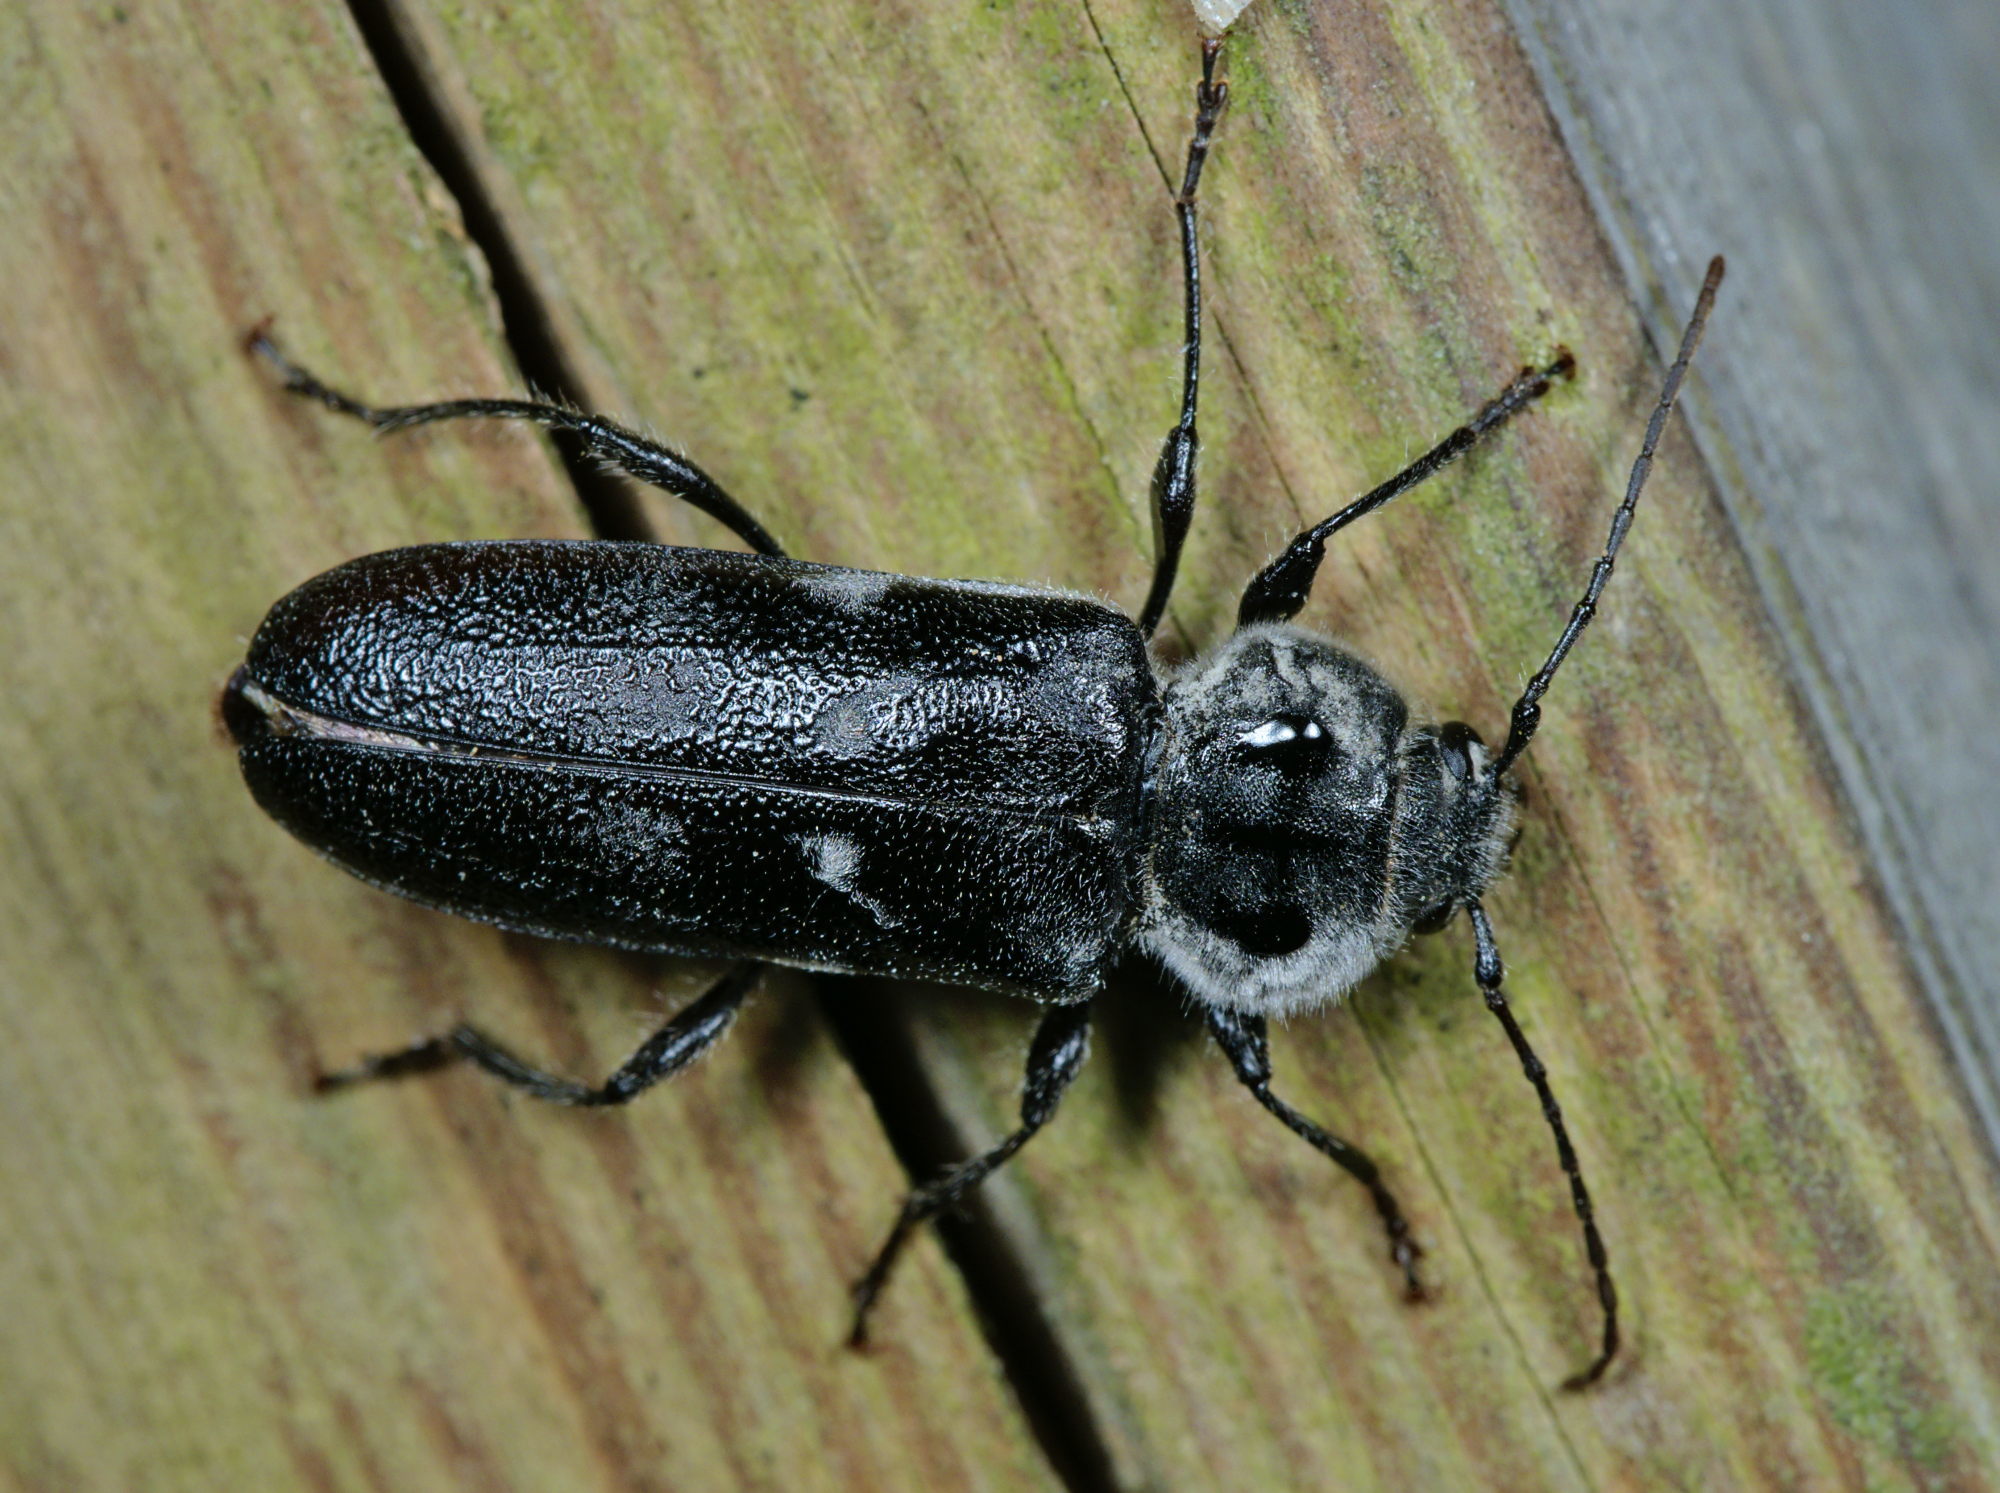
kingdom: Animalia
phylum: Arthropoda
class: Insecta
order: Coleoptera
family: Cerambycidae
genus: Hylotrupes
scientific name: Hylotrupes bajulus
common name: Old house borer
